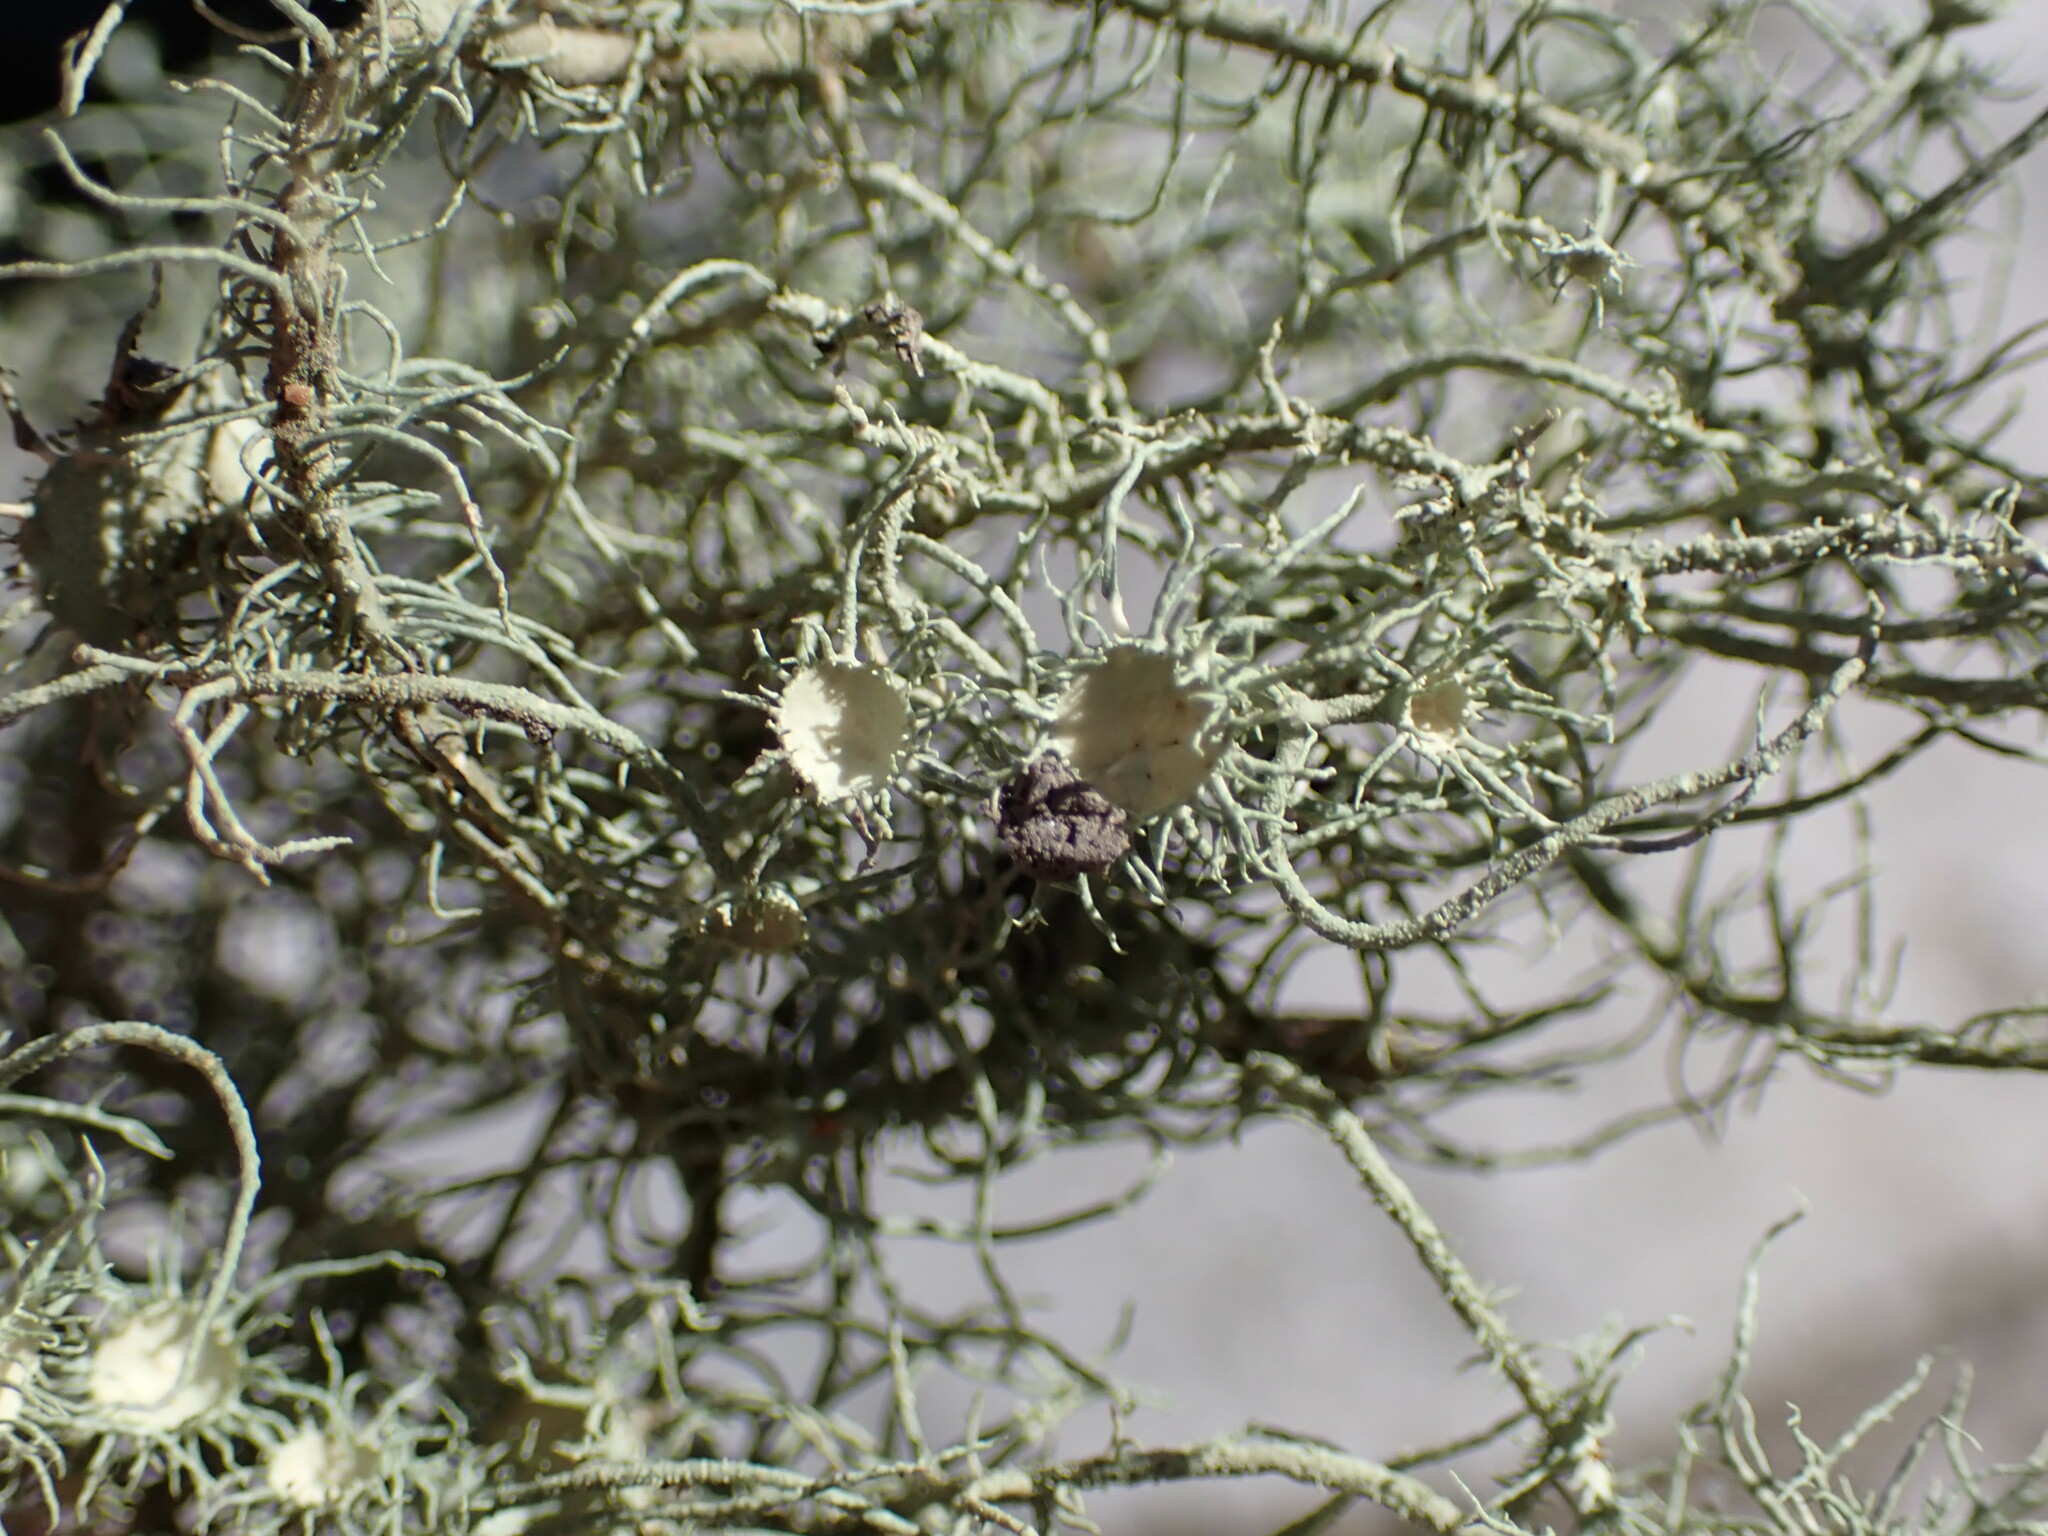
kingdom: Fungi
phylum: Ascomycota
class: Lecanoromycetes
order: Lecanorales
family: Parmeliaceae
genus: Usnea
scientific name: Usnea intermedia
